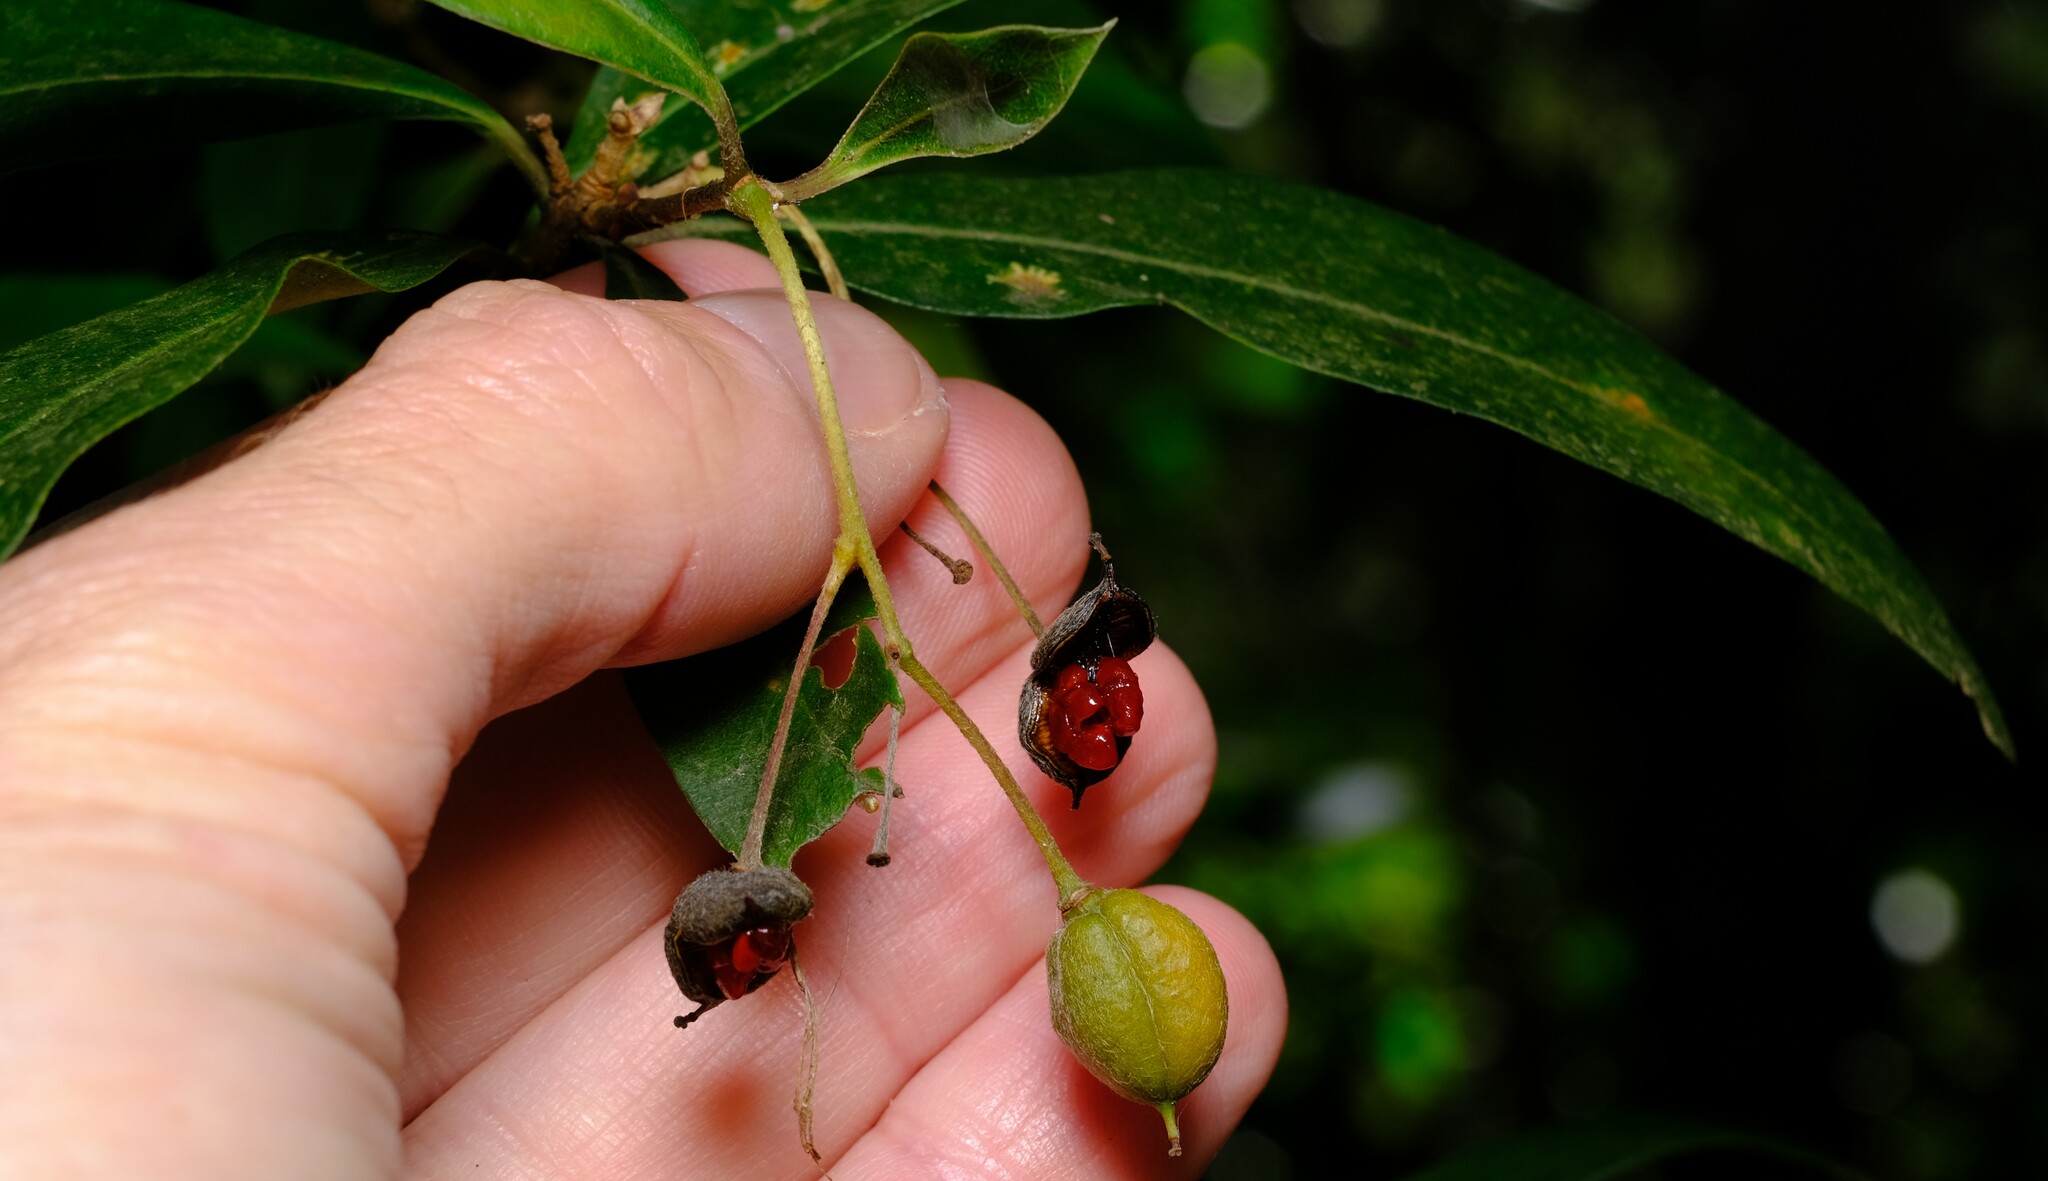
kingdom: Plantae
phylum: Tracheophyta
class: Magnoliopsida
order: Apiales
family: Pittosporaceae
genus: Pittosporum
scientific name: Pittosporum bicolor
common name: Tallowwood
